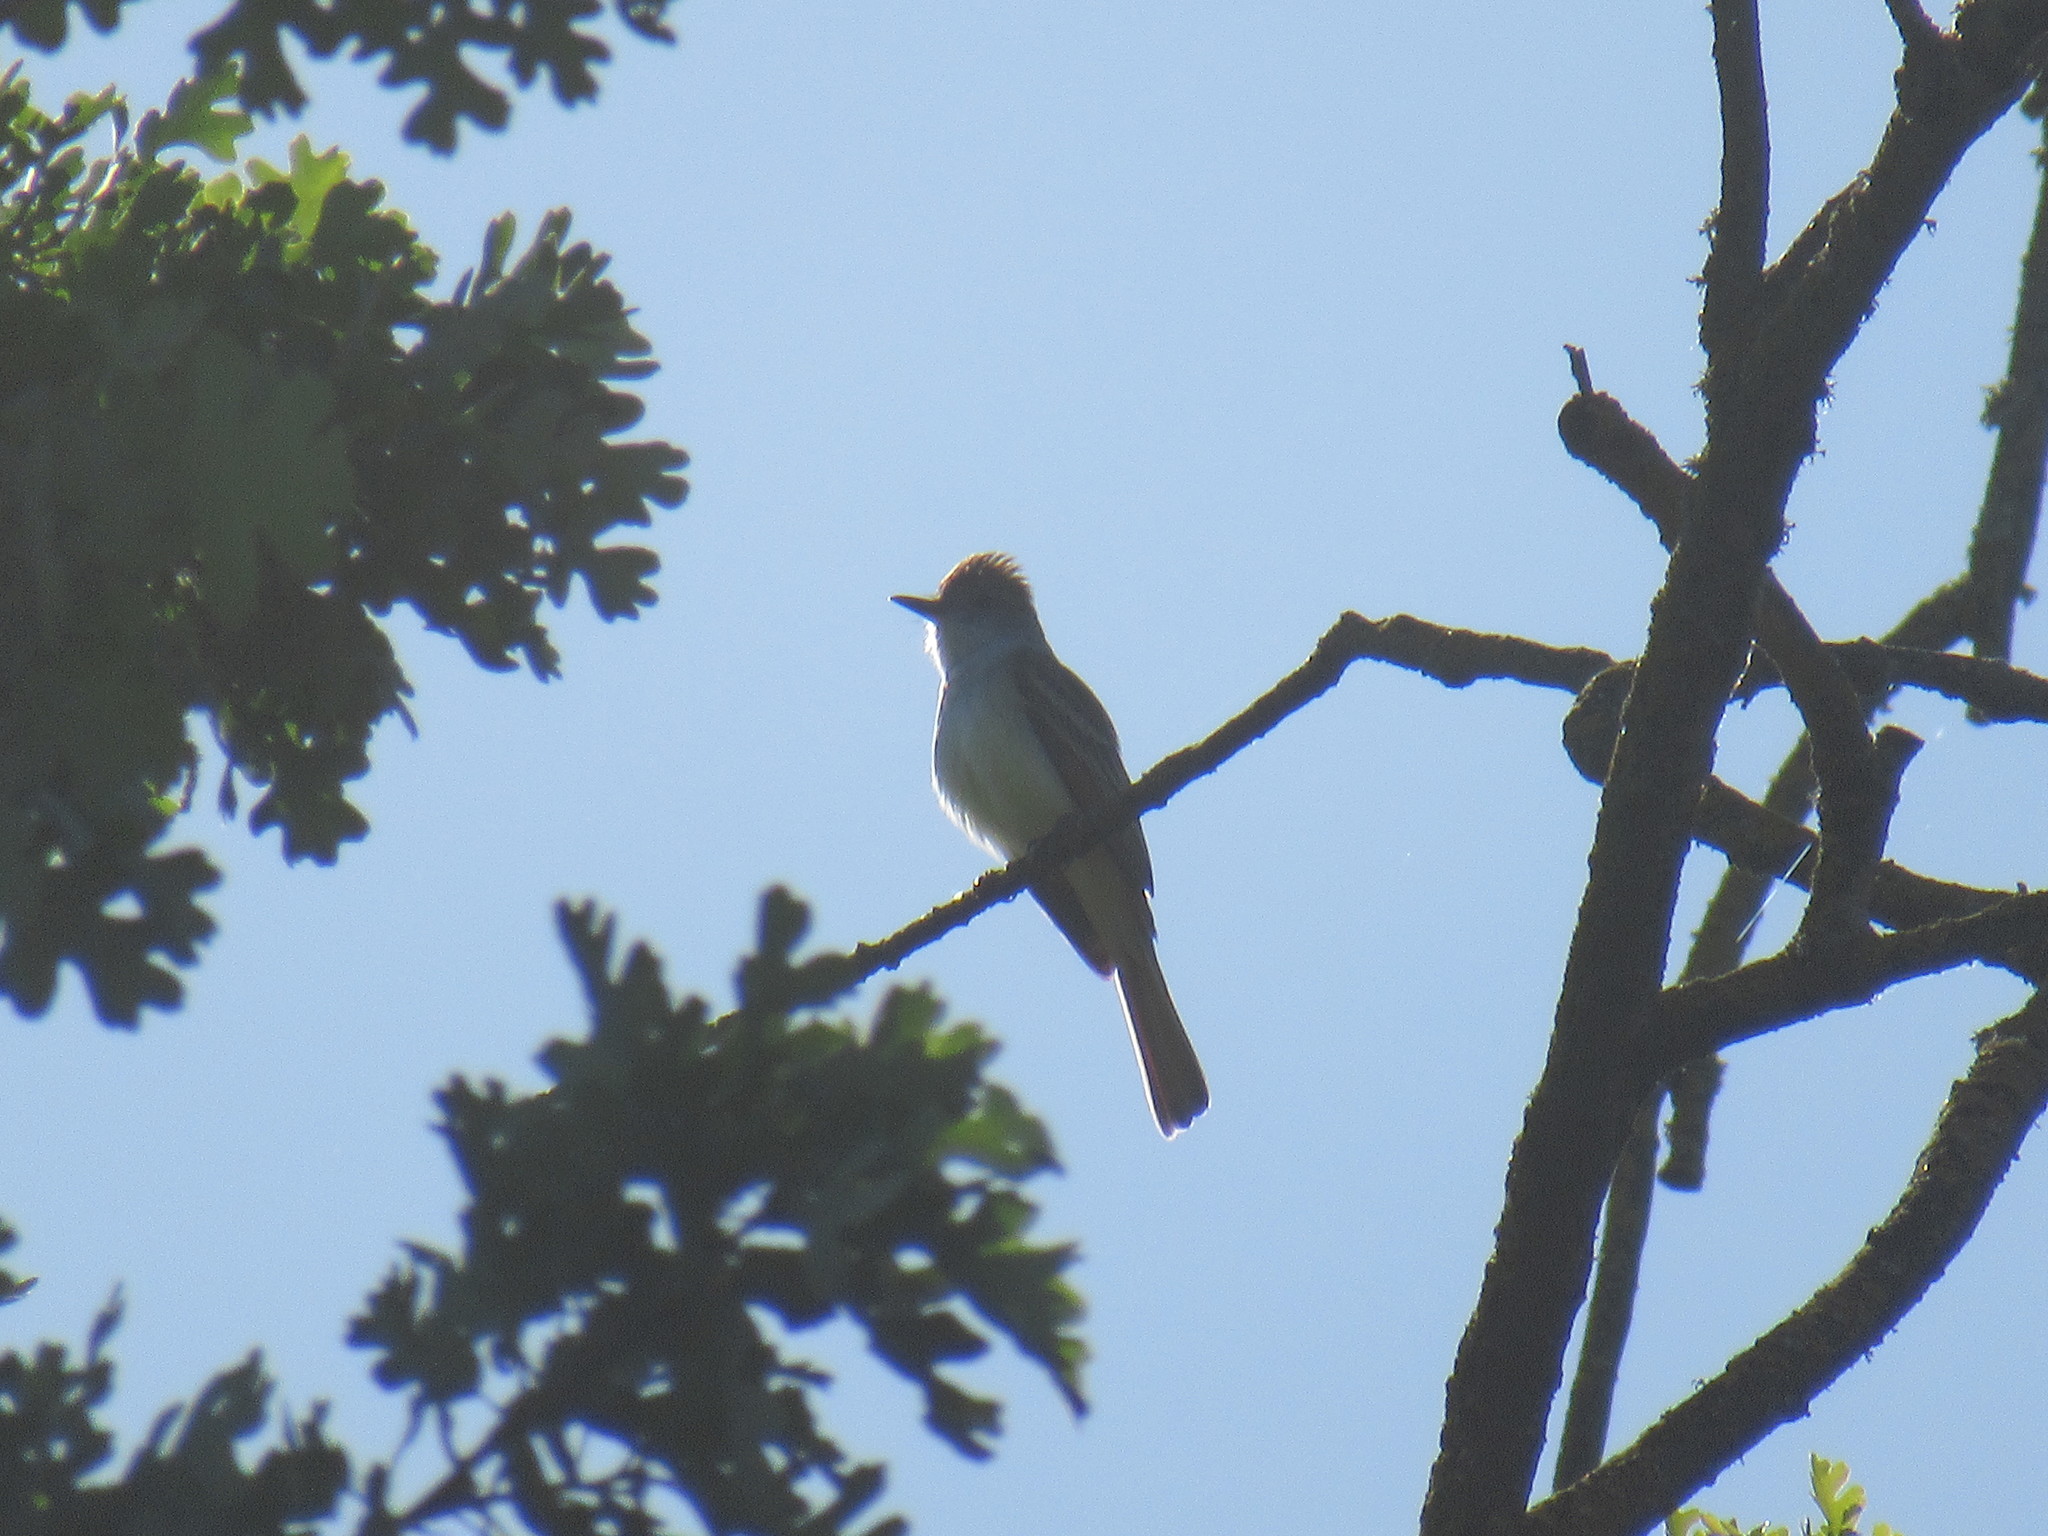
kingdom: Animalia
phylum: Chordata
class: Aves
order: Passeriformes
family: Tyrannidae
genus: Myiarchus
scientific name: Myiarchus cinerascens
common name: Ash-throated flycatcher
